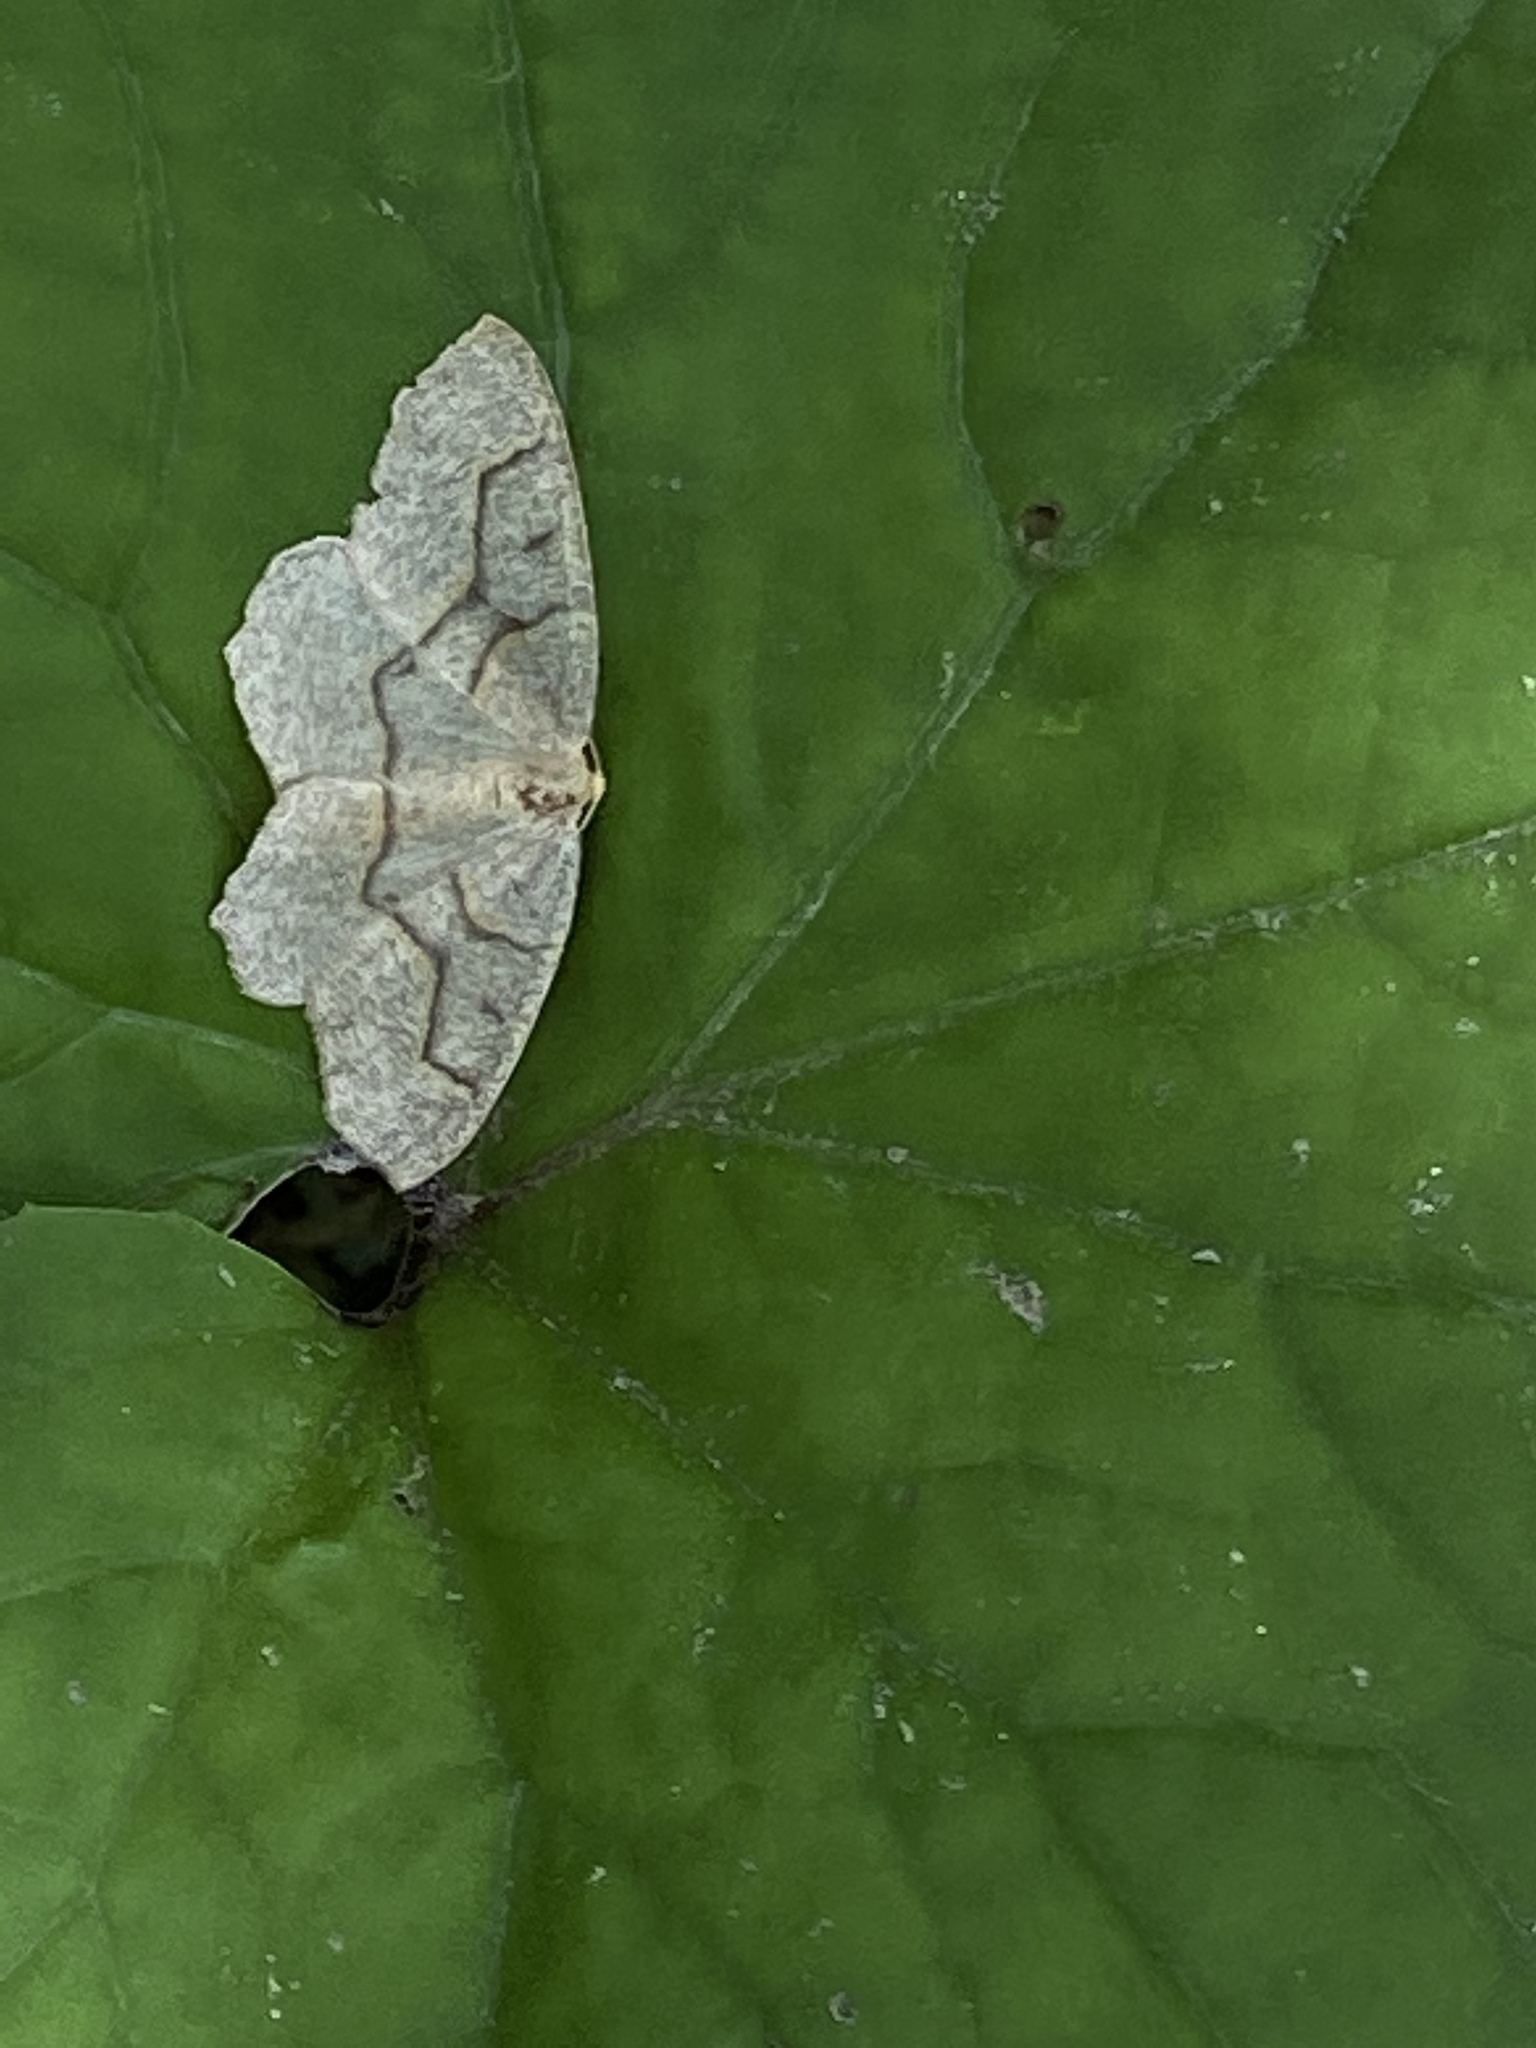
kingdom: Animalia
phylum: Arthropoda
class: Insecta
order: Lepidoptera
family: Geometridae
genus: Lambdina
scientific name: Lambdina fiscellaria
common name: Hemlock looper
